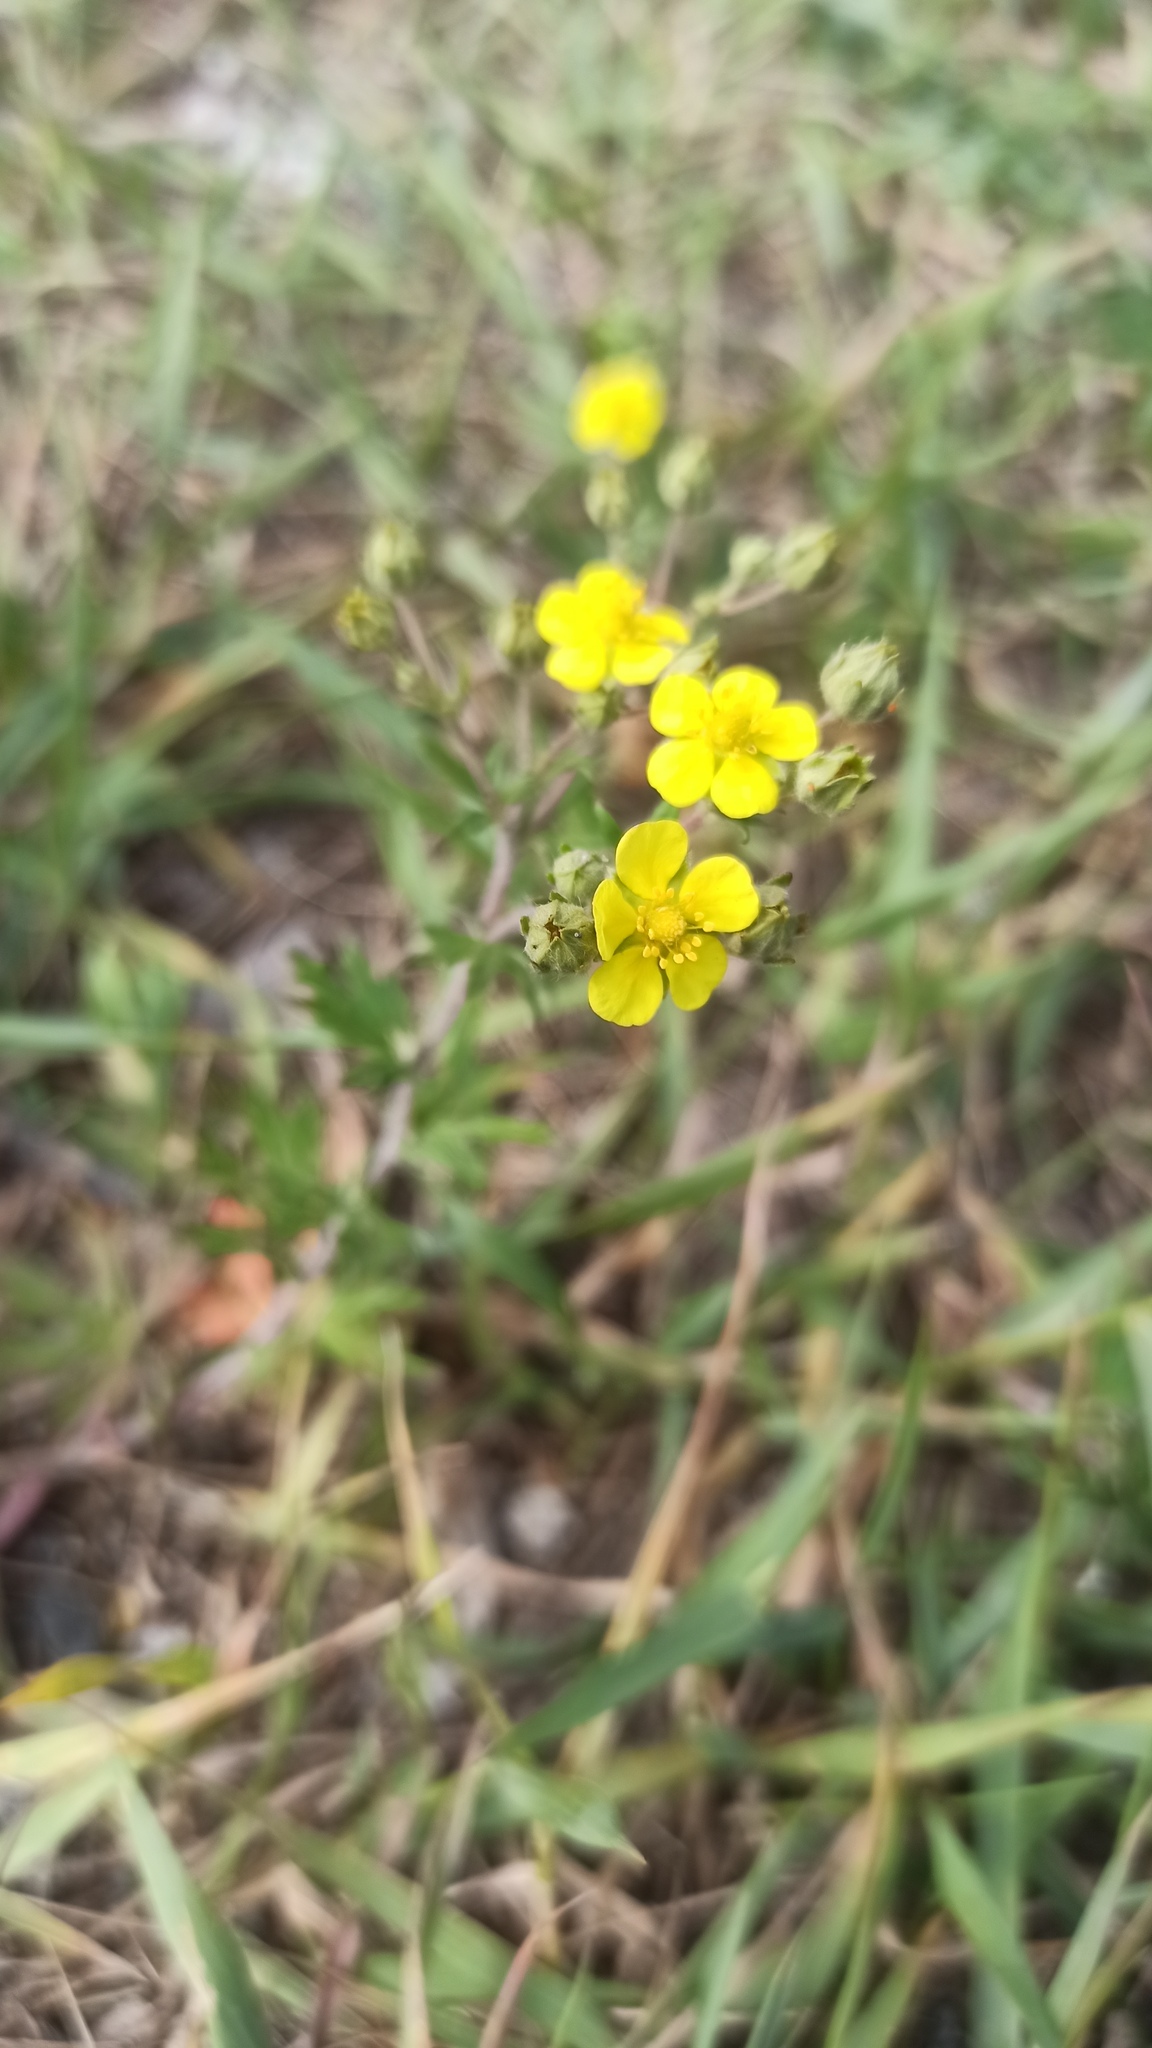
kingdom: Plantae
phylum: Tracheophyta
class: Magnoliopsida
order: Rosales
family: Rosaceae
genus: Potentilla
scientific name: Potentilla argentea
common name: Hoary cinquefoil
